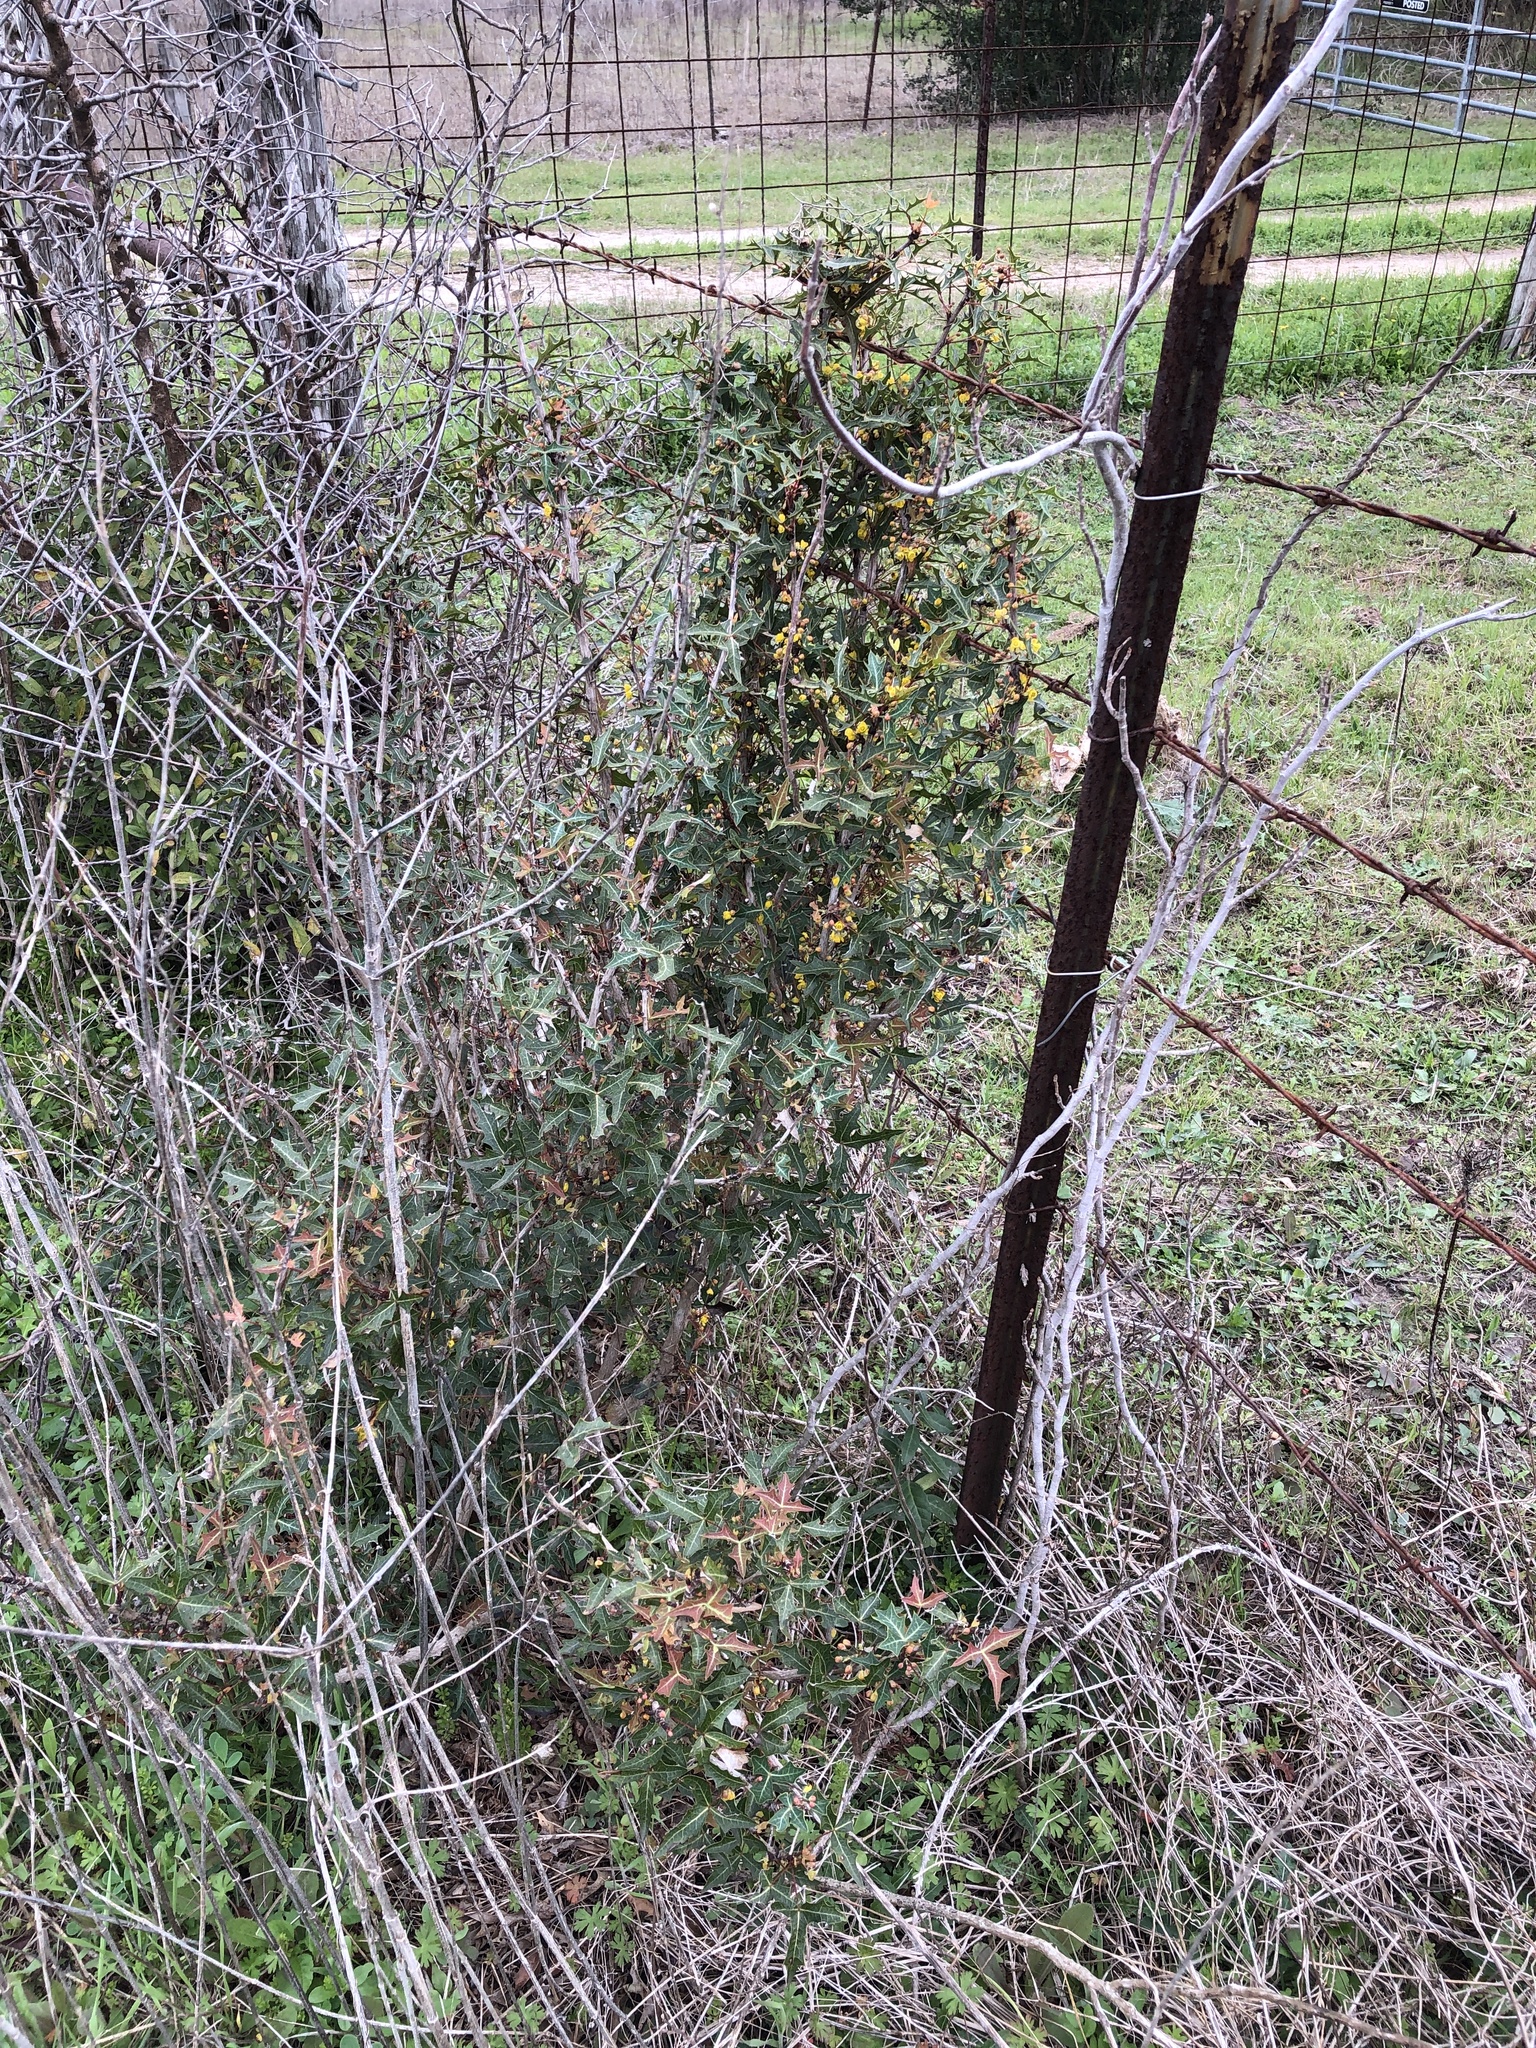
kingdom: Plantae
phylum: Tracheophyta
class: Magnoliopsida
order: Ranunculales
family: Berberidaceae
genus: Alloberberis
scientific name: Alloberberis trifoliolata
